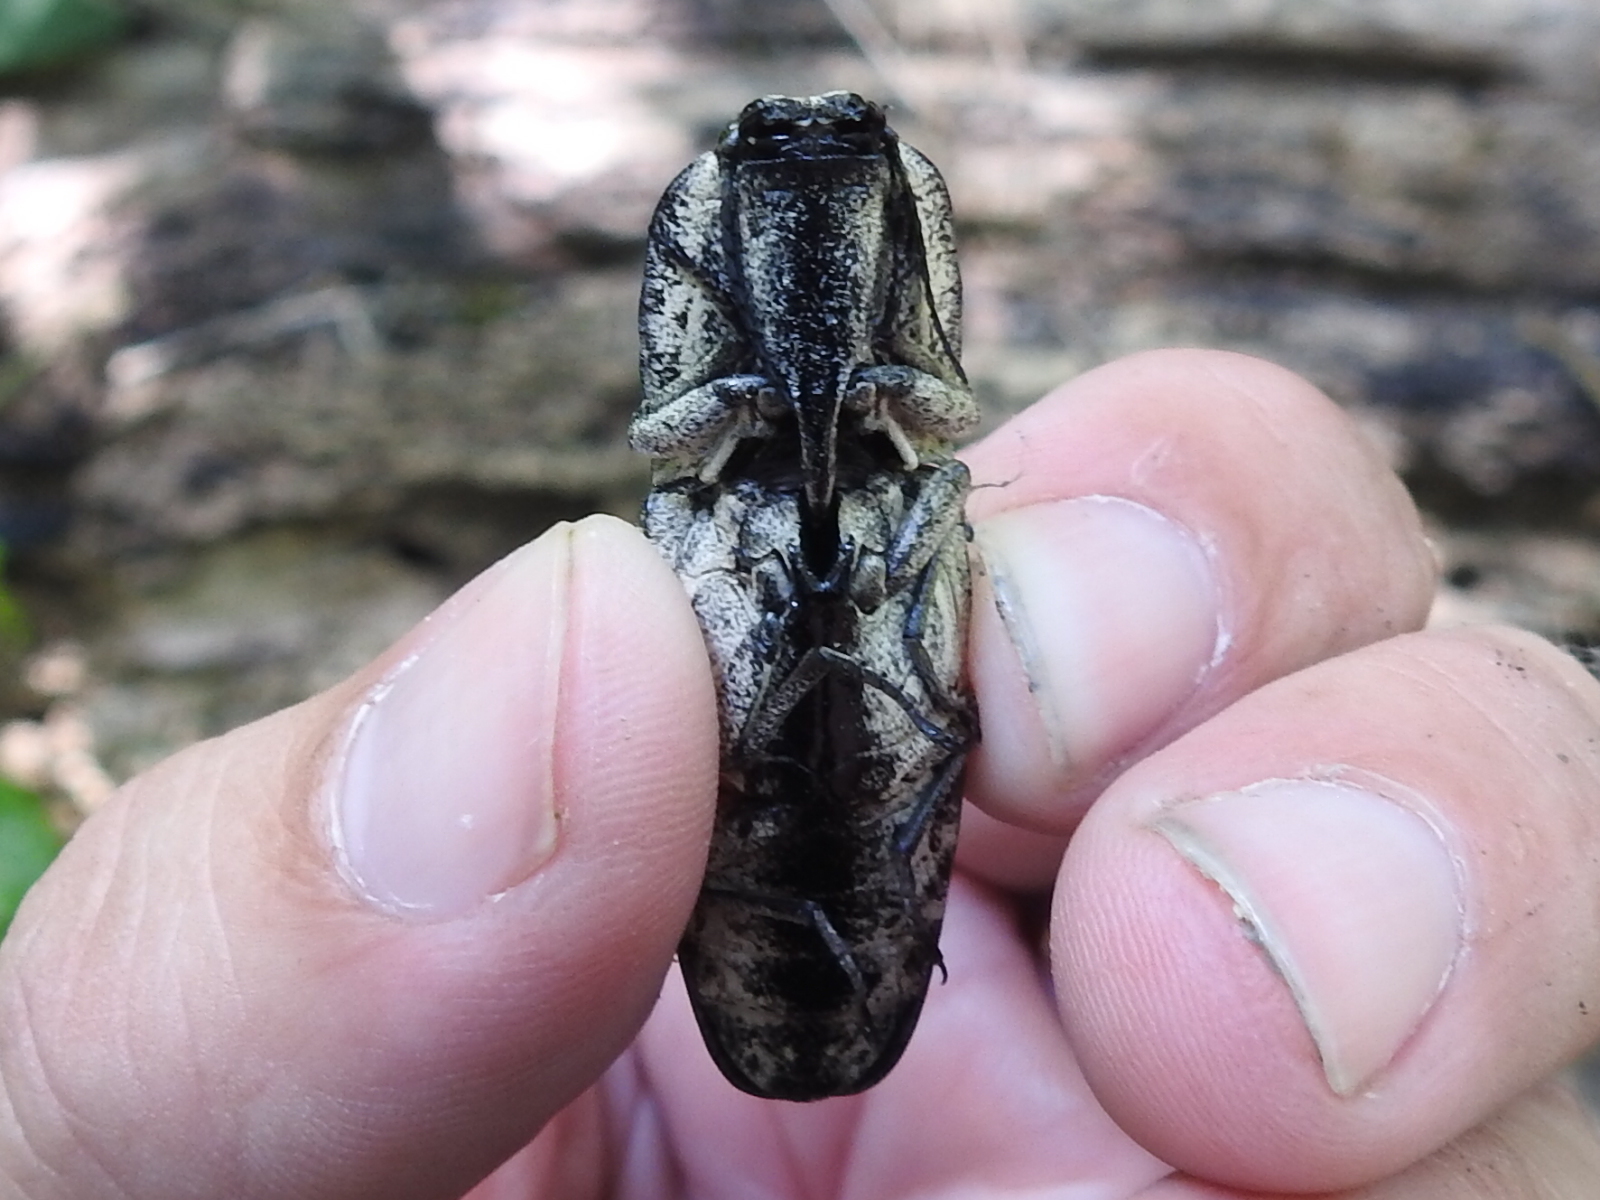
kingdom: Animalia
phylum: Arthropoda
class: Insecta
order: Coleoptera
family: Elateridae
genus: Alaus
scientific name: Alaus oculatus
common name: Eastern eyed click beetle
